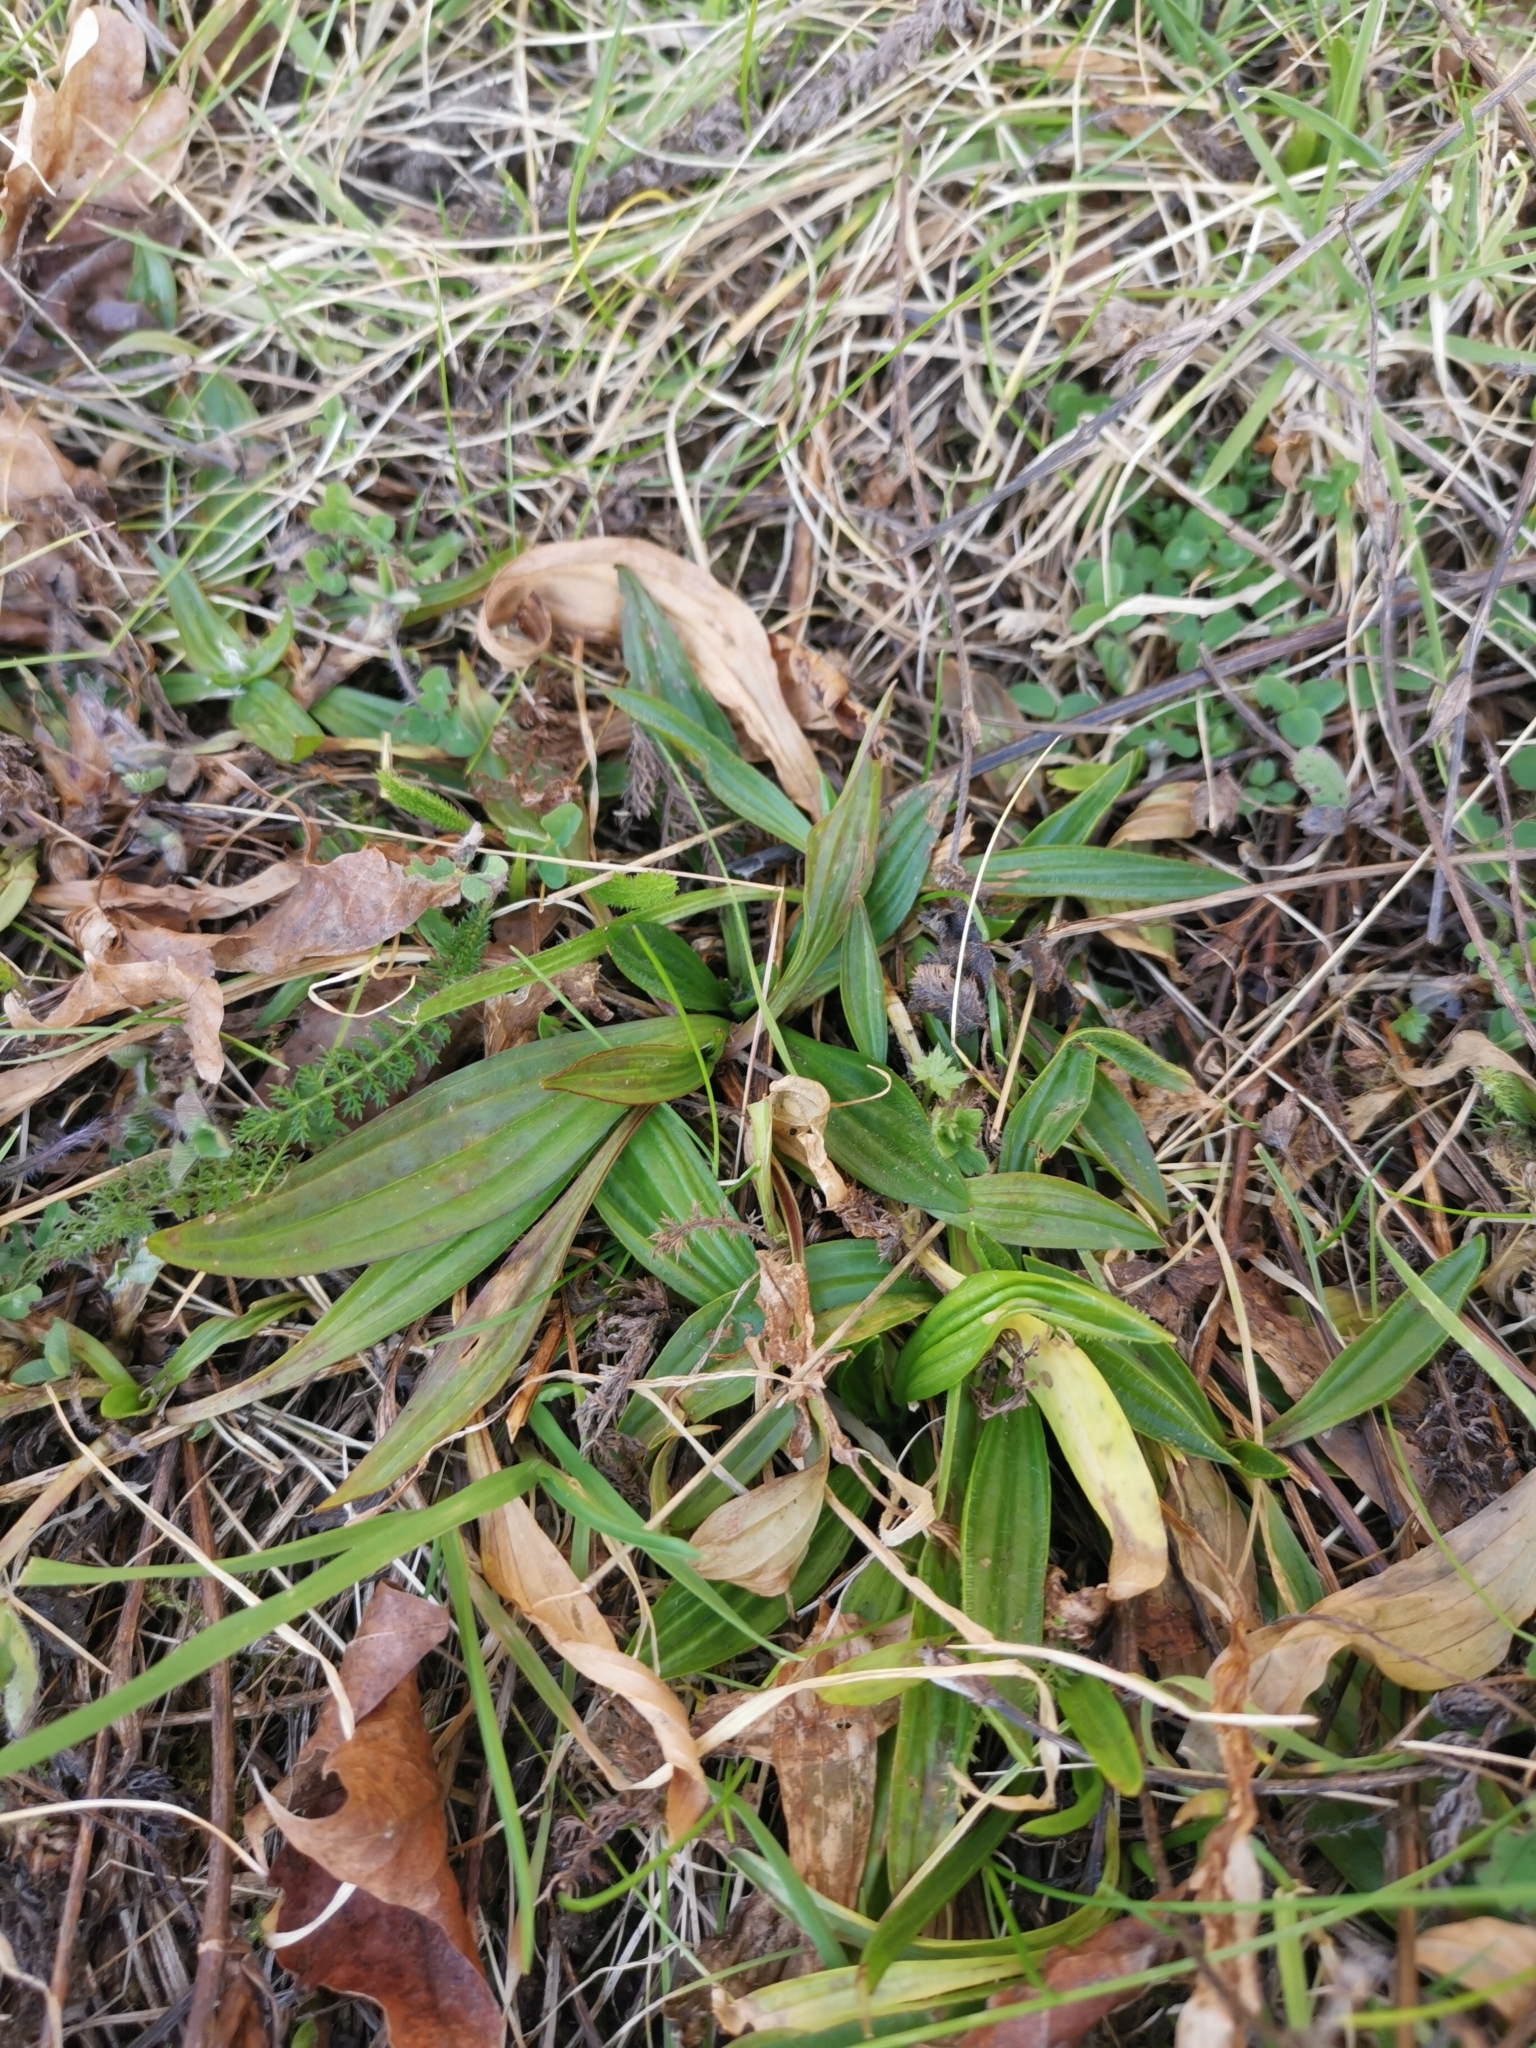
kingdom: Plantae
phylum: Tracheophyta
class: Magnoliopsida
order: Lamiales
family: Plantaginaceae
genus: Plantago
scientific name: Plantago lanceolata
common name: Ribwort plantain
